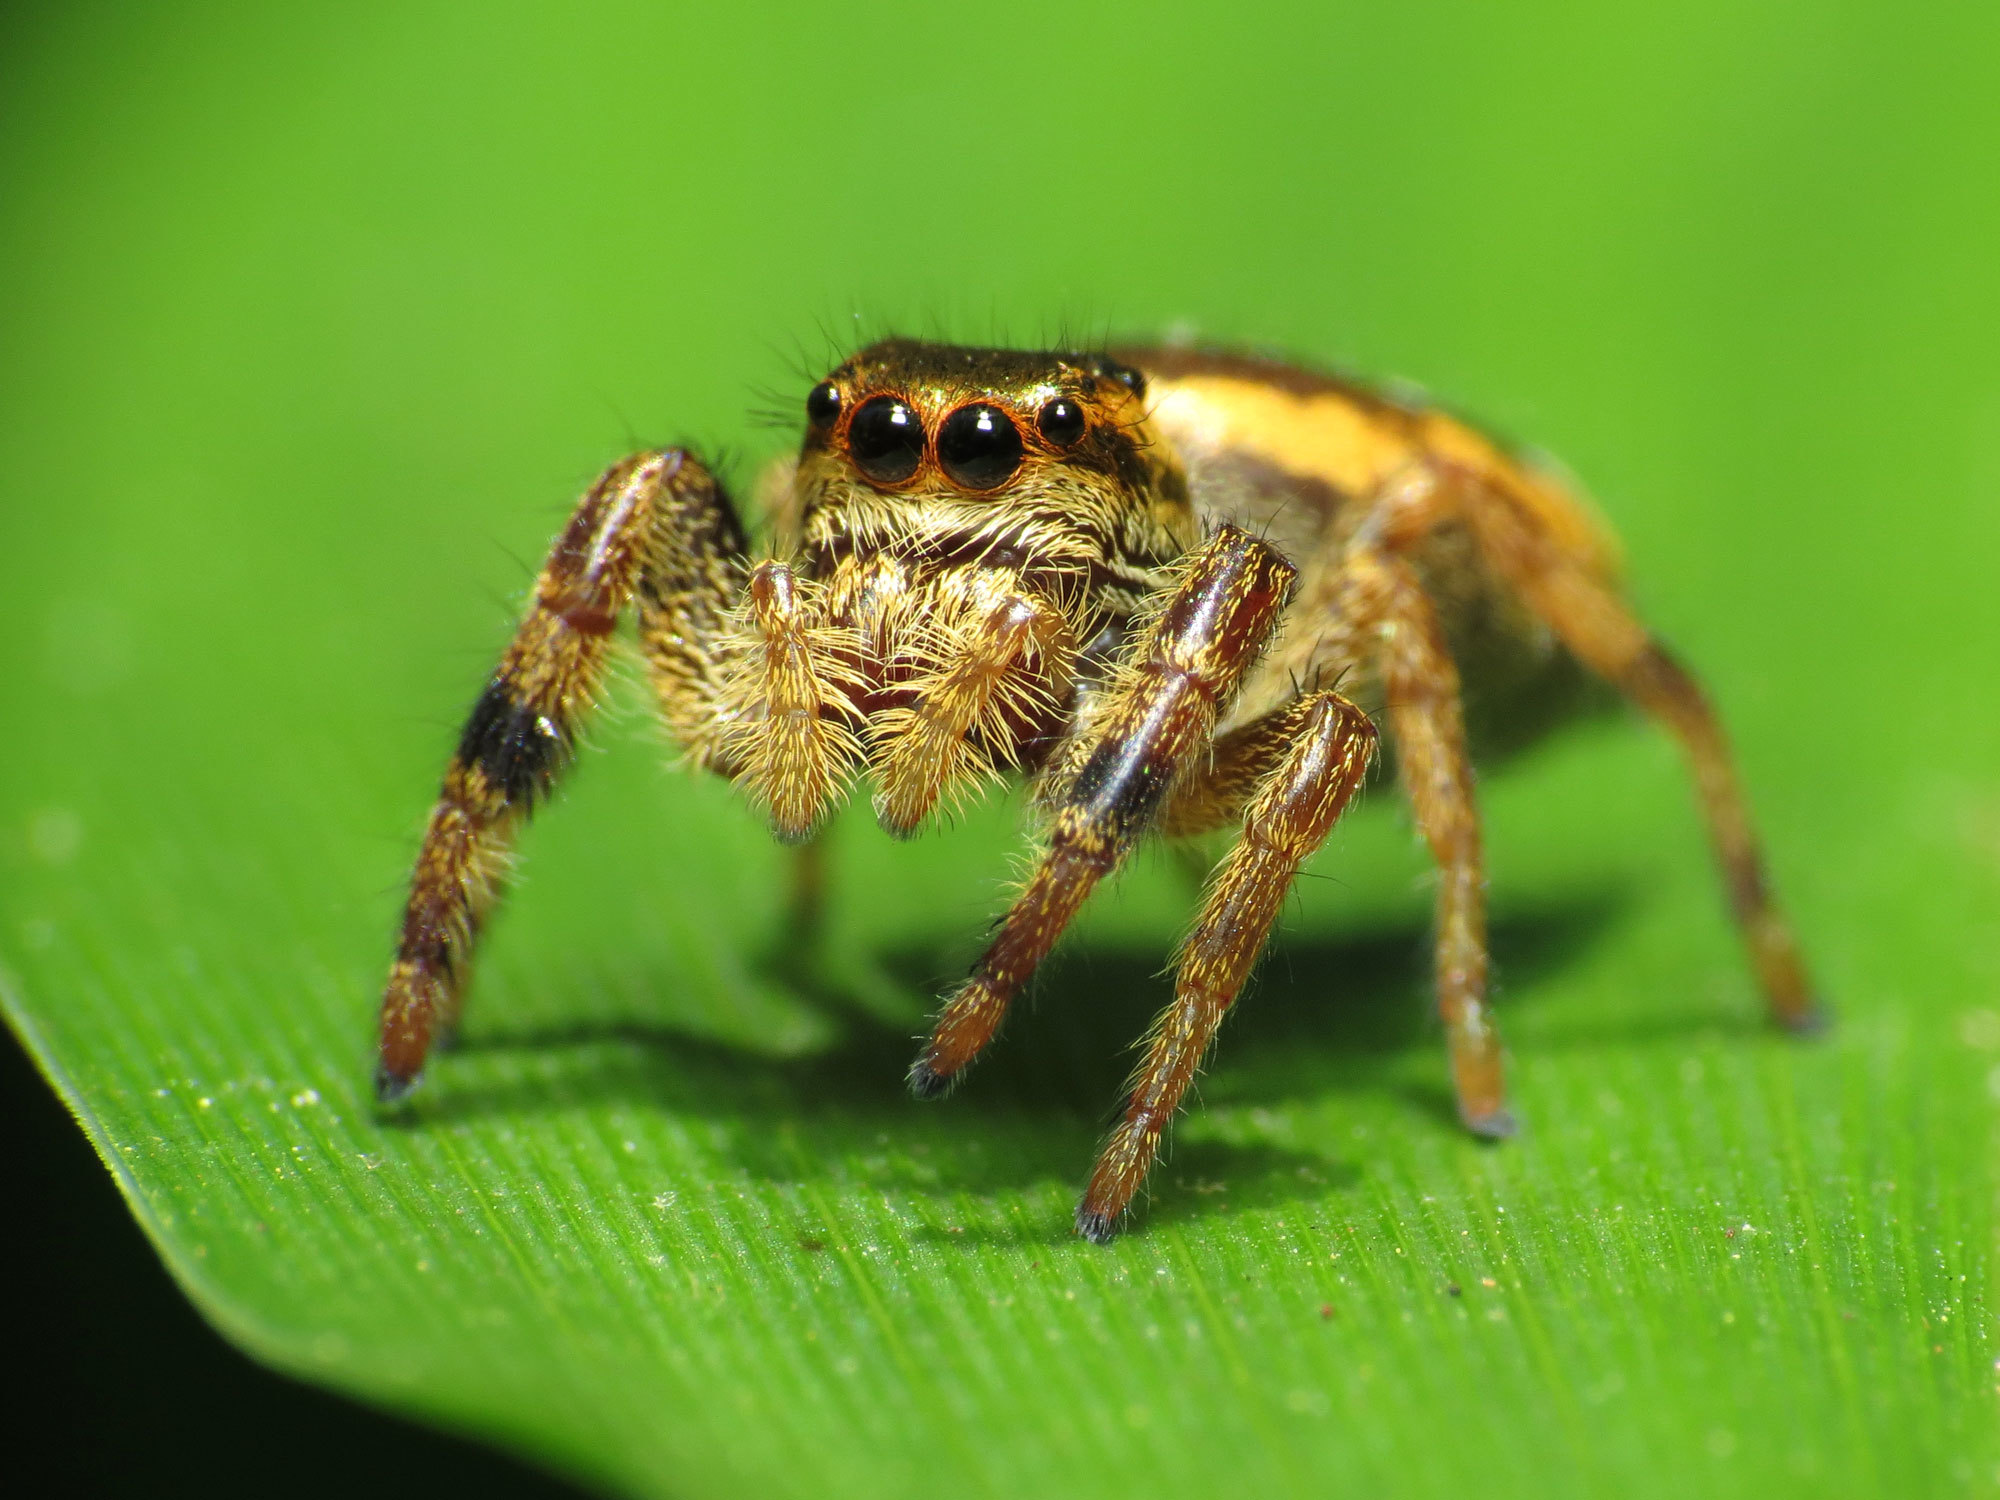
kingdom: Animalia
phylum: Arthropoda
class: Arachnida
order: Araneae
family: Salticidae
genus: Paraphidippus
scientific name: Paraphidippus aurantius
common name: Jumping spiders
